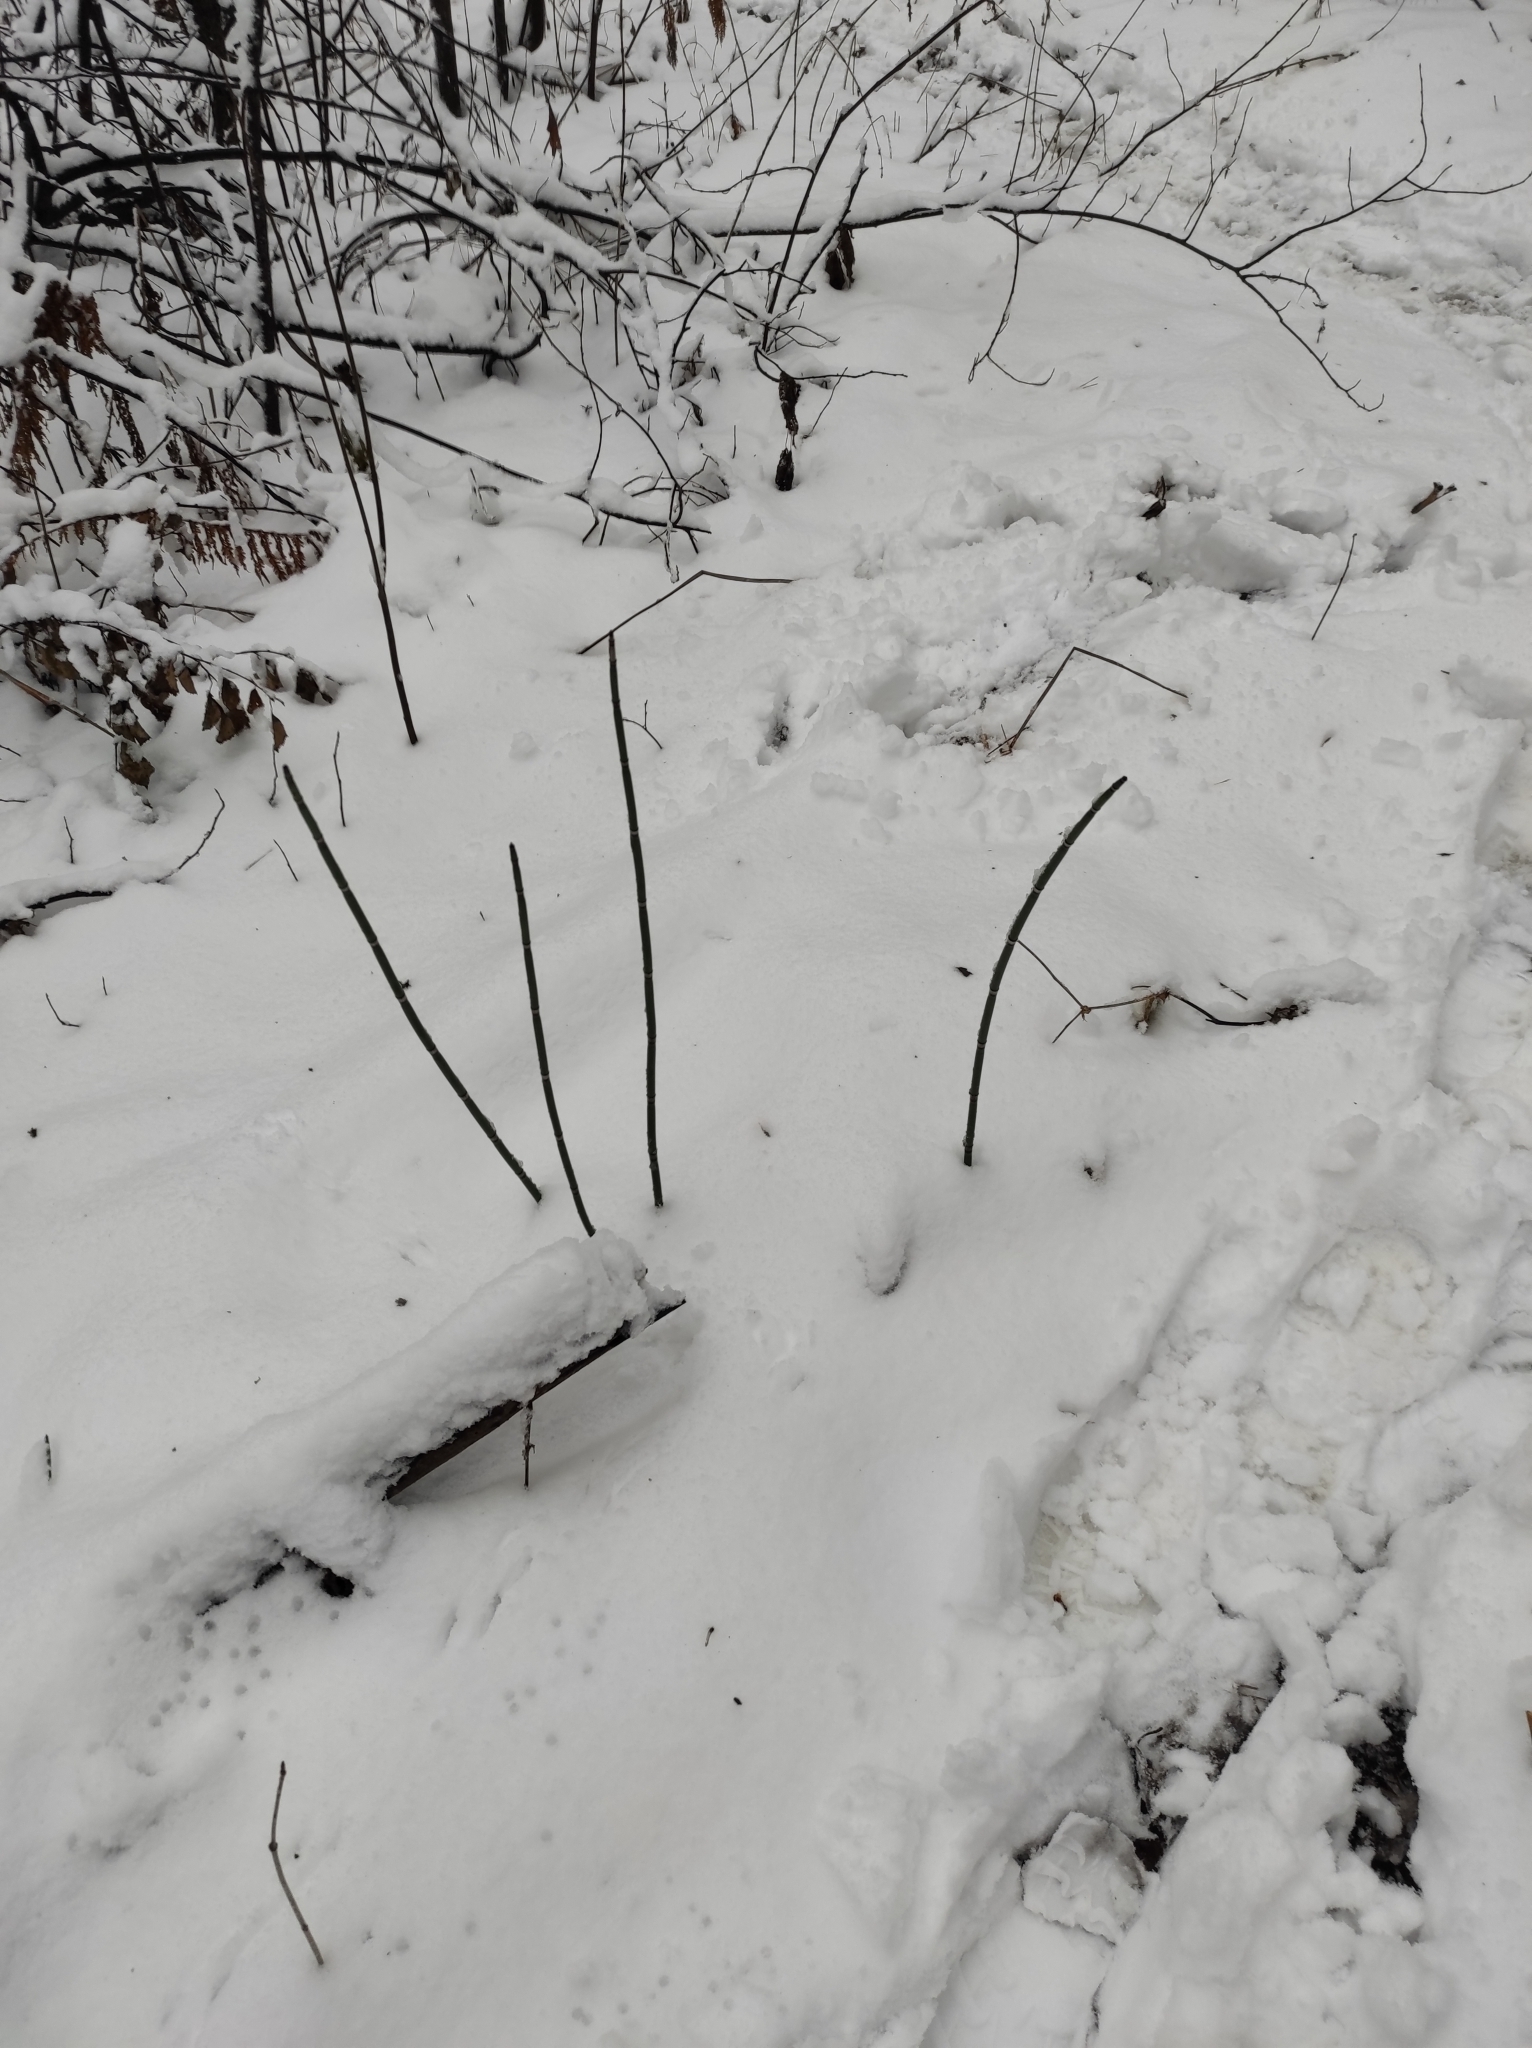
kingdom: Plantae
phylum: Tracheophyta
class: Polypodiopsida
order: Equisetales
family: Equisetaceae
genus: Equisetum
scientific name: Equisetum hyemale
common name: Rough horsetail
